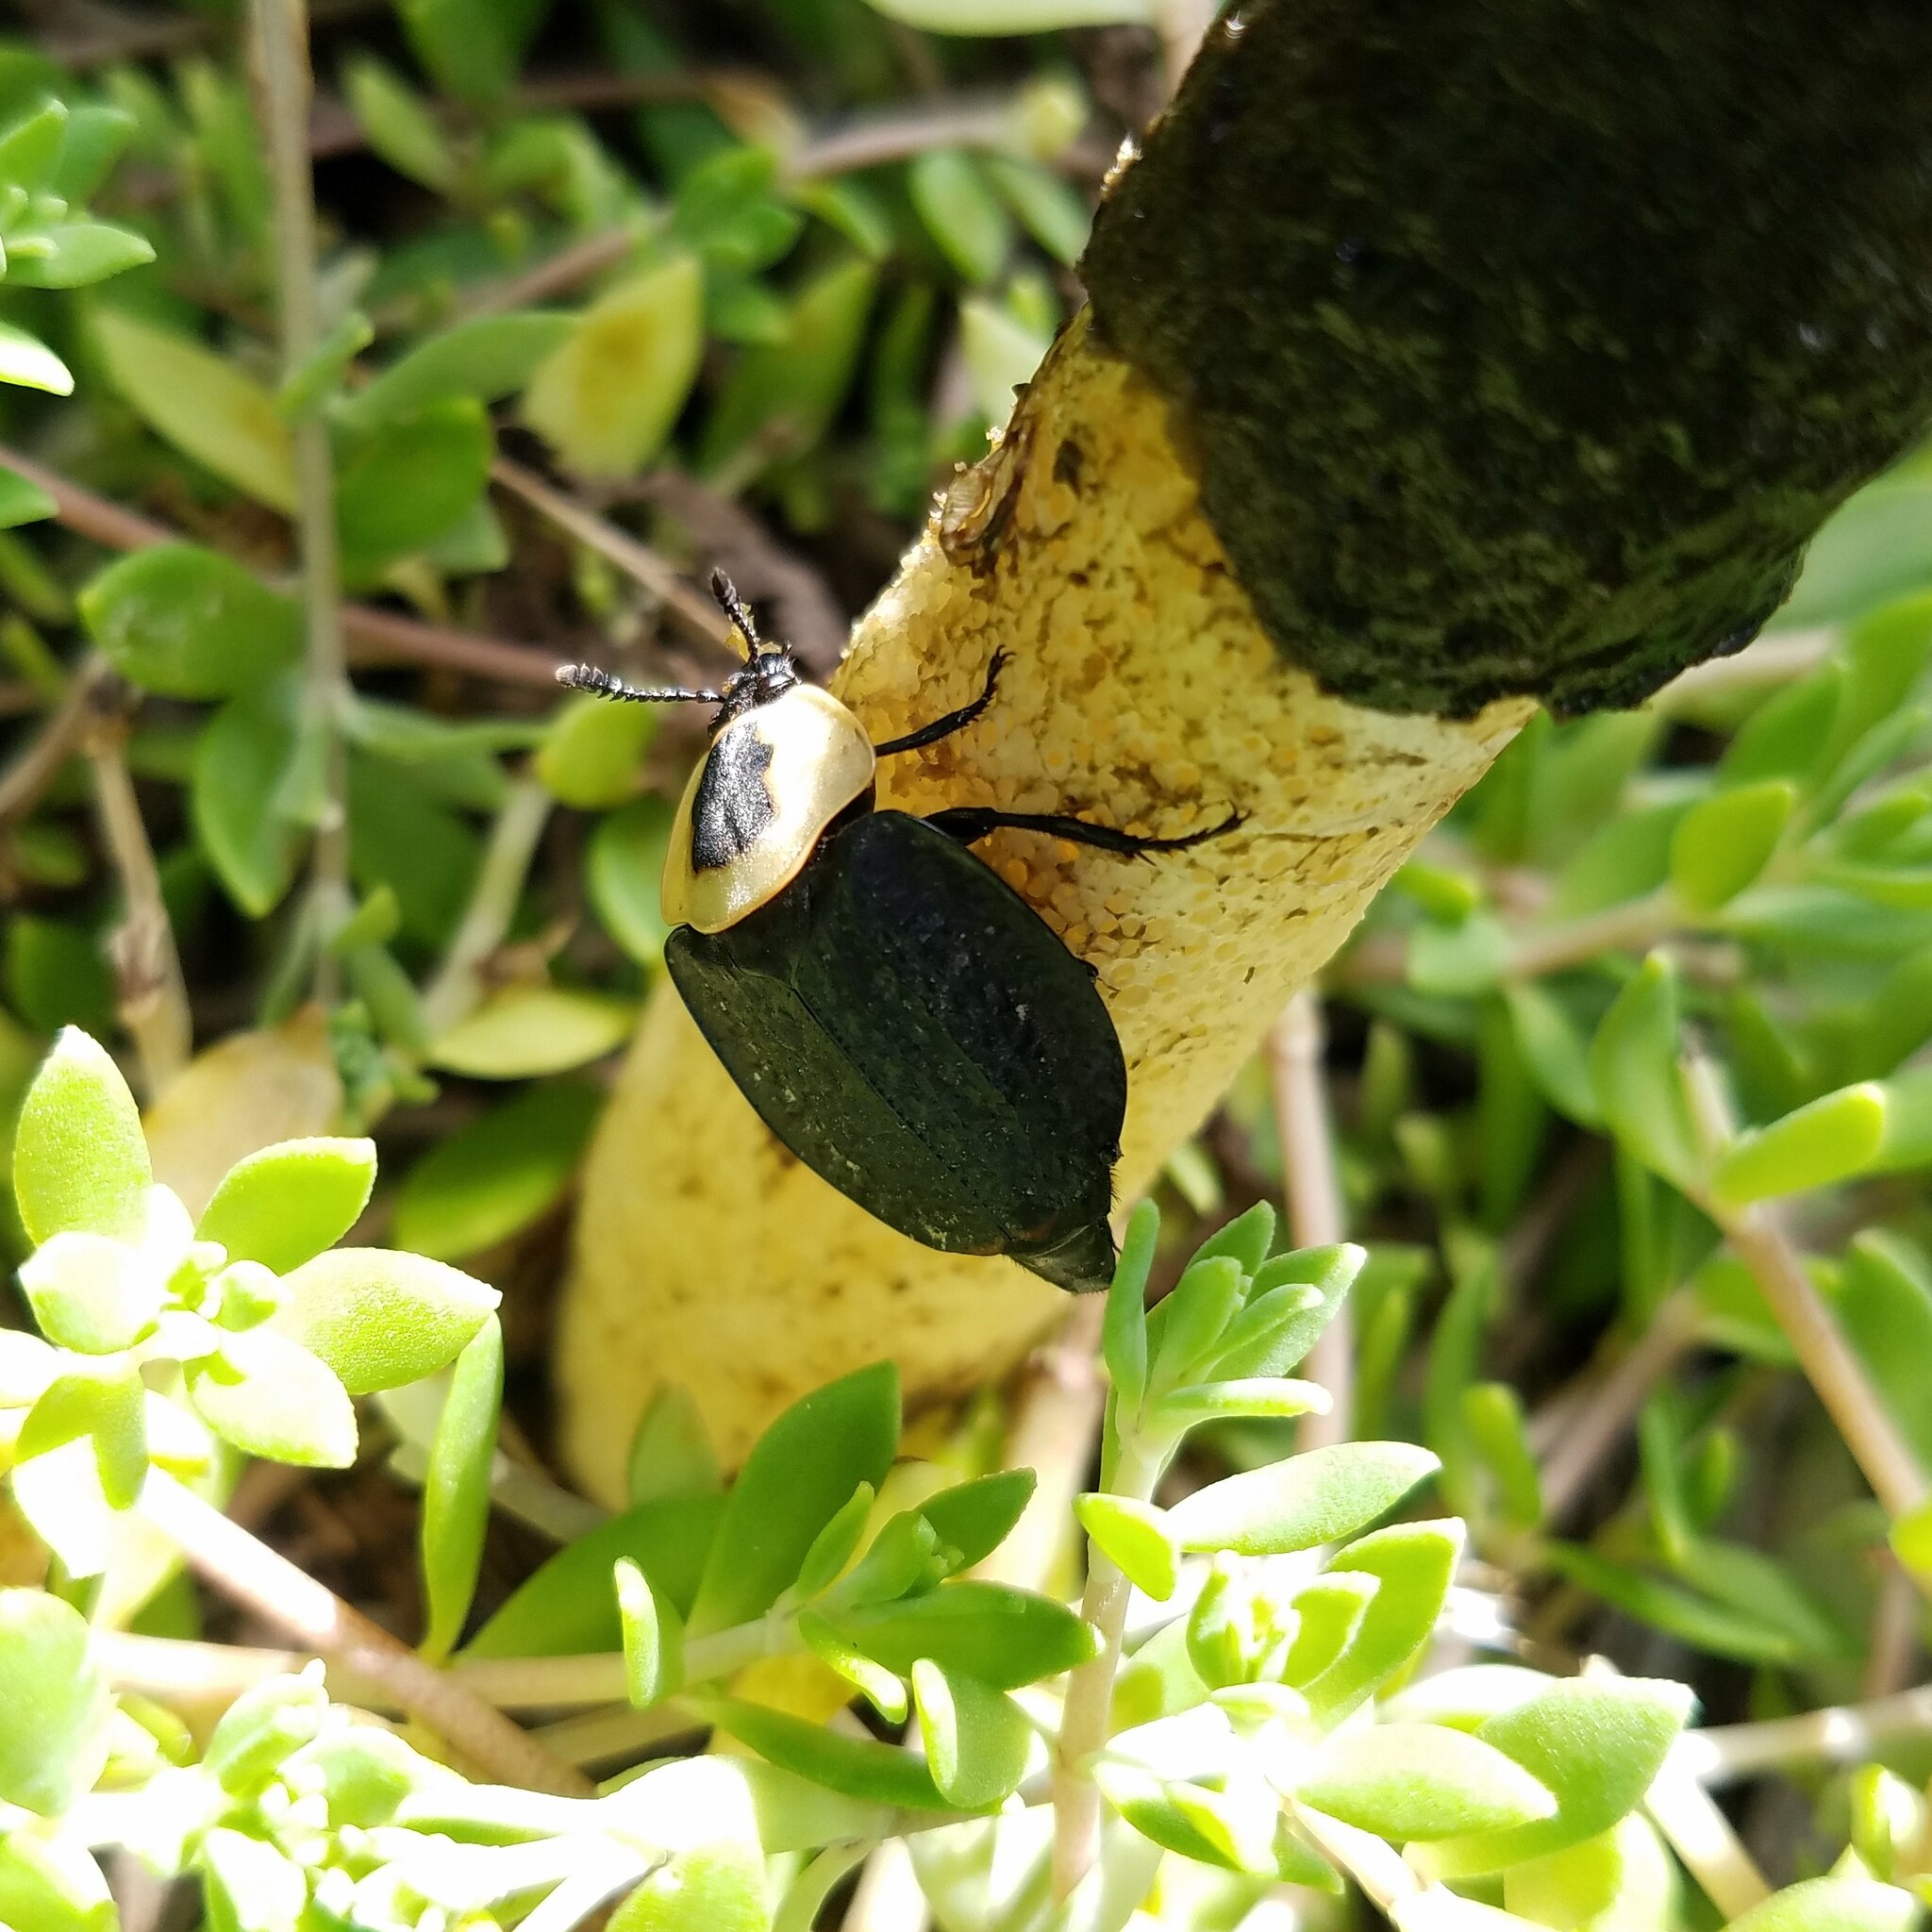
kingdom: Animalia
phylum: Arthropoda
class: Insecta
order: Coleoptera
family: Staphylinidae
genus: Necrophila
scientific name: Necrophila americana
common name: American carrion beetle
